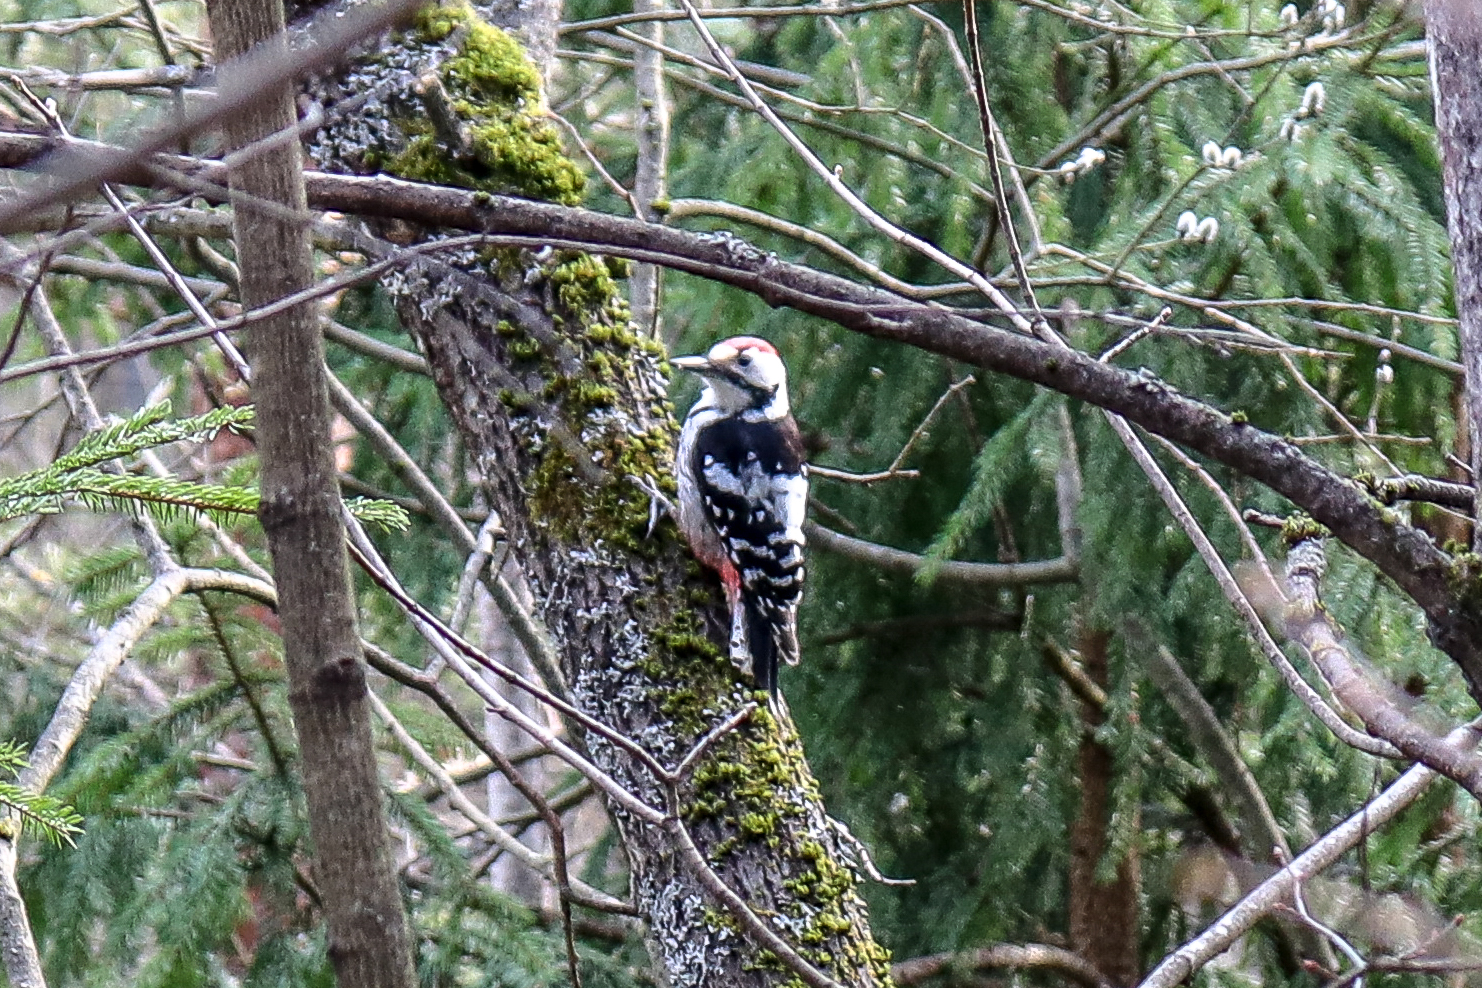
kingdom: Animalia
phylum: Chordata
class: Aves
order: Piciformes
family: Picidae
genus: Dendrocopos
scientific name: Dendrocopos leucotos
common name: White-backed woodpecker
